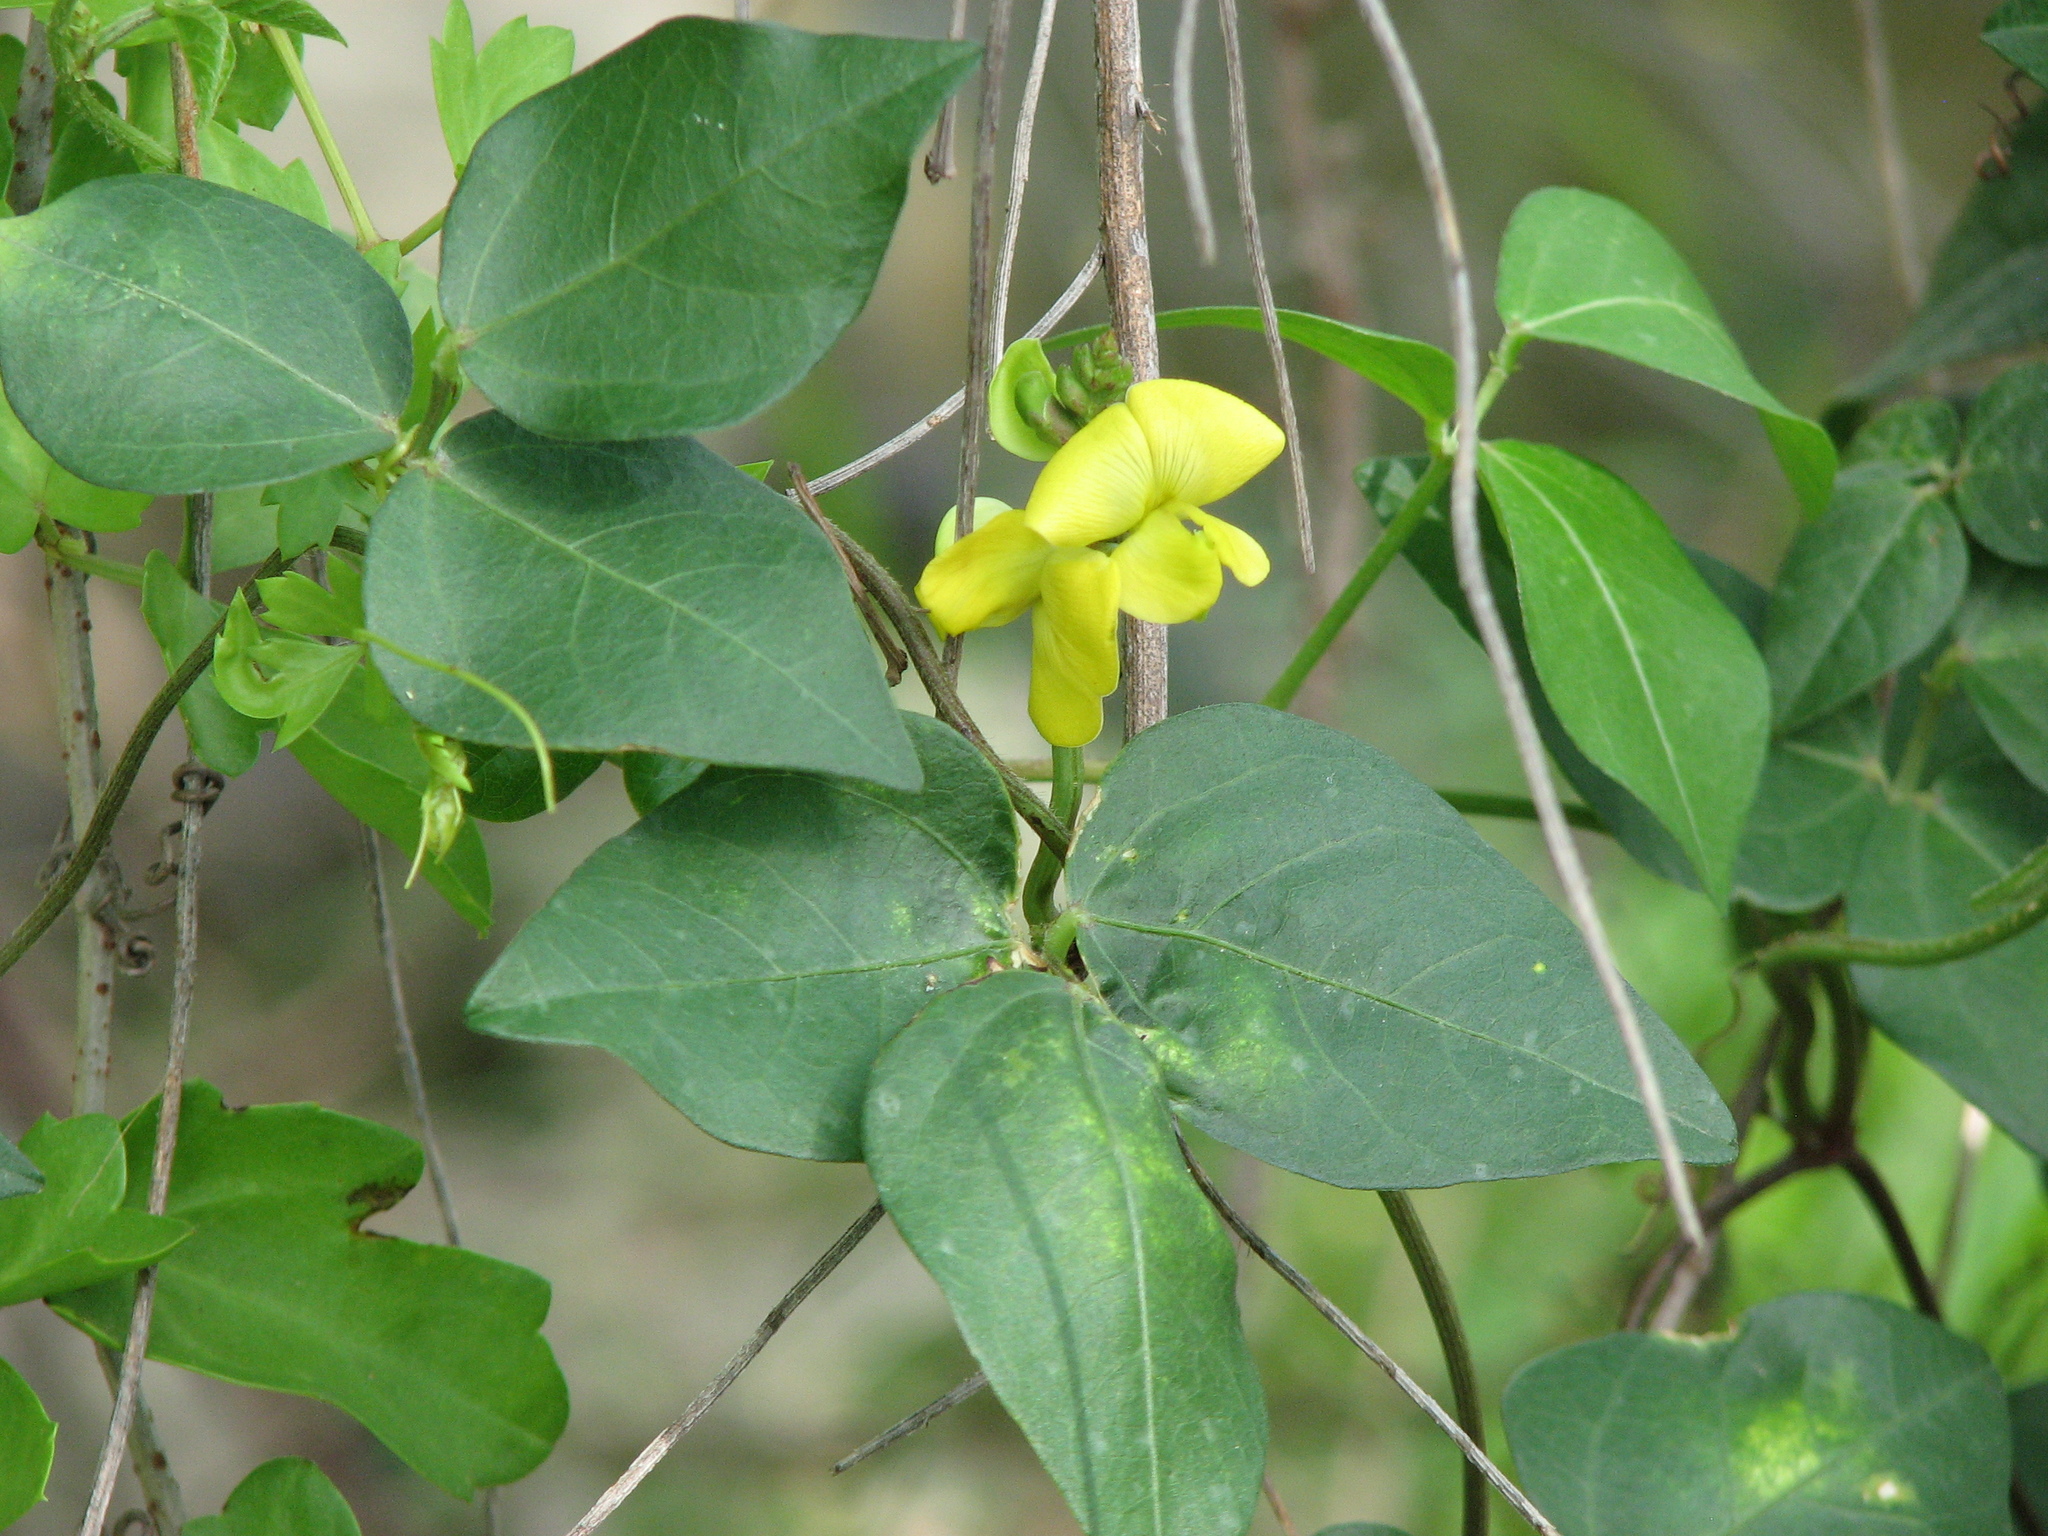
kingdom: Plantae
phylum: Tracheophyta
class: Magnoliopsida
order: Fabales
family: Fabaceae
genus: Vigna
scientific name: Vigna luteola
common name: Hairypod cowpea
